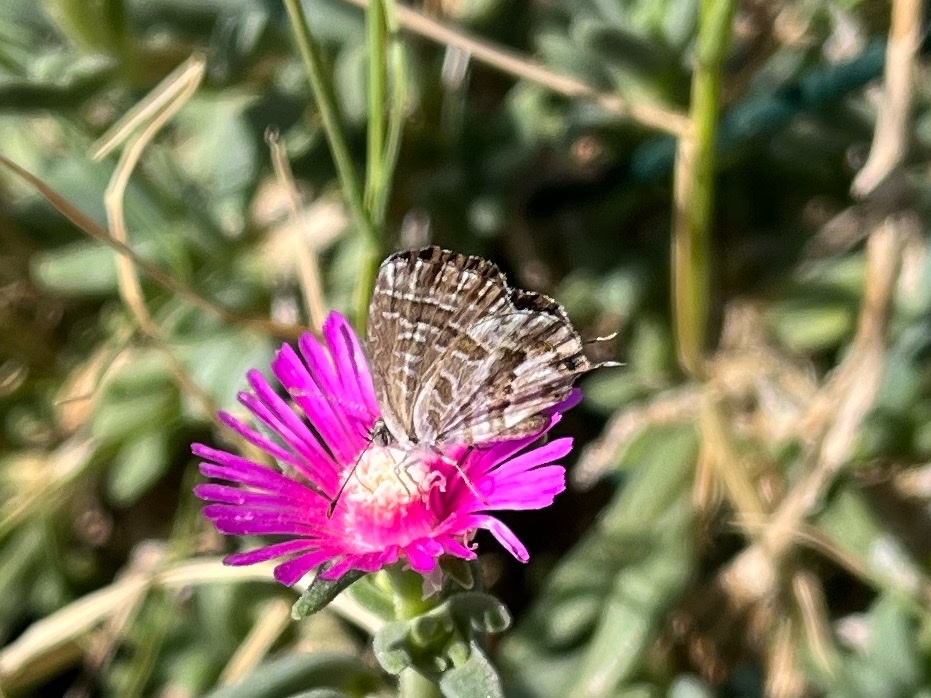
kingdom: Animalia
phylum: Arthropoda
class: Insecta
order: Lepidoptera
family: Lycaenidae
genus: Cacyreus
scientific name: Cacyreus marshalli
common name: Geranium bronze
